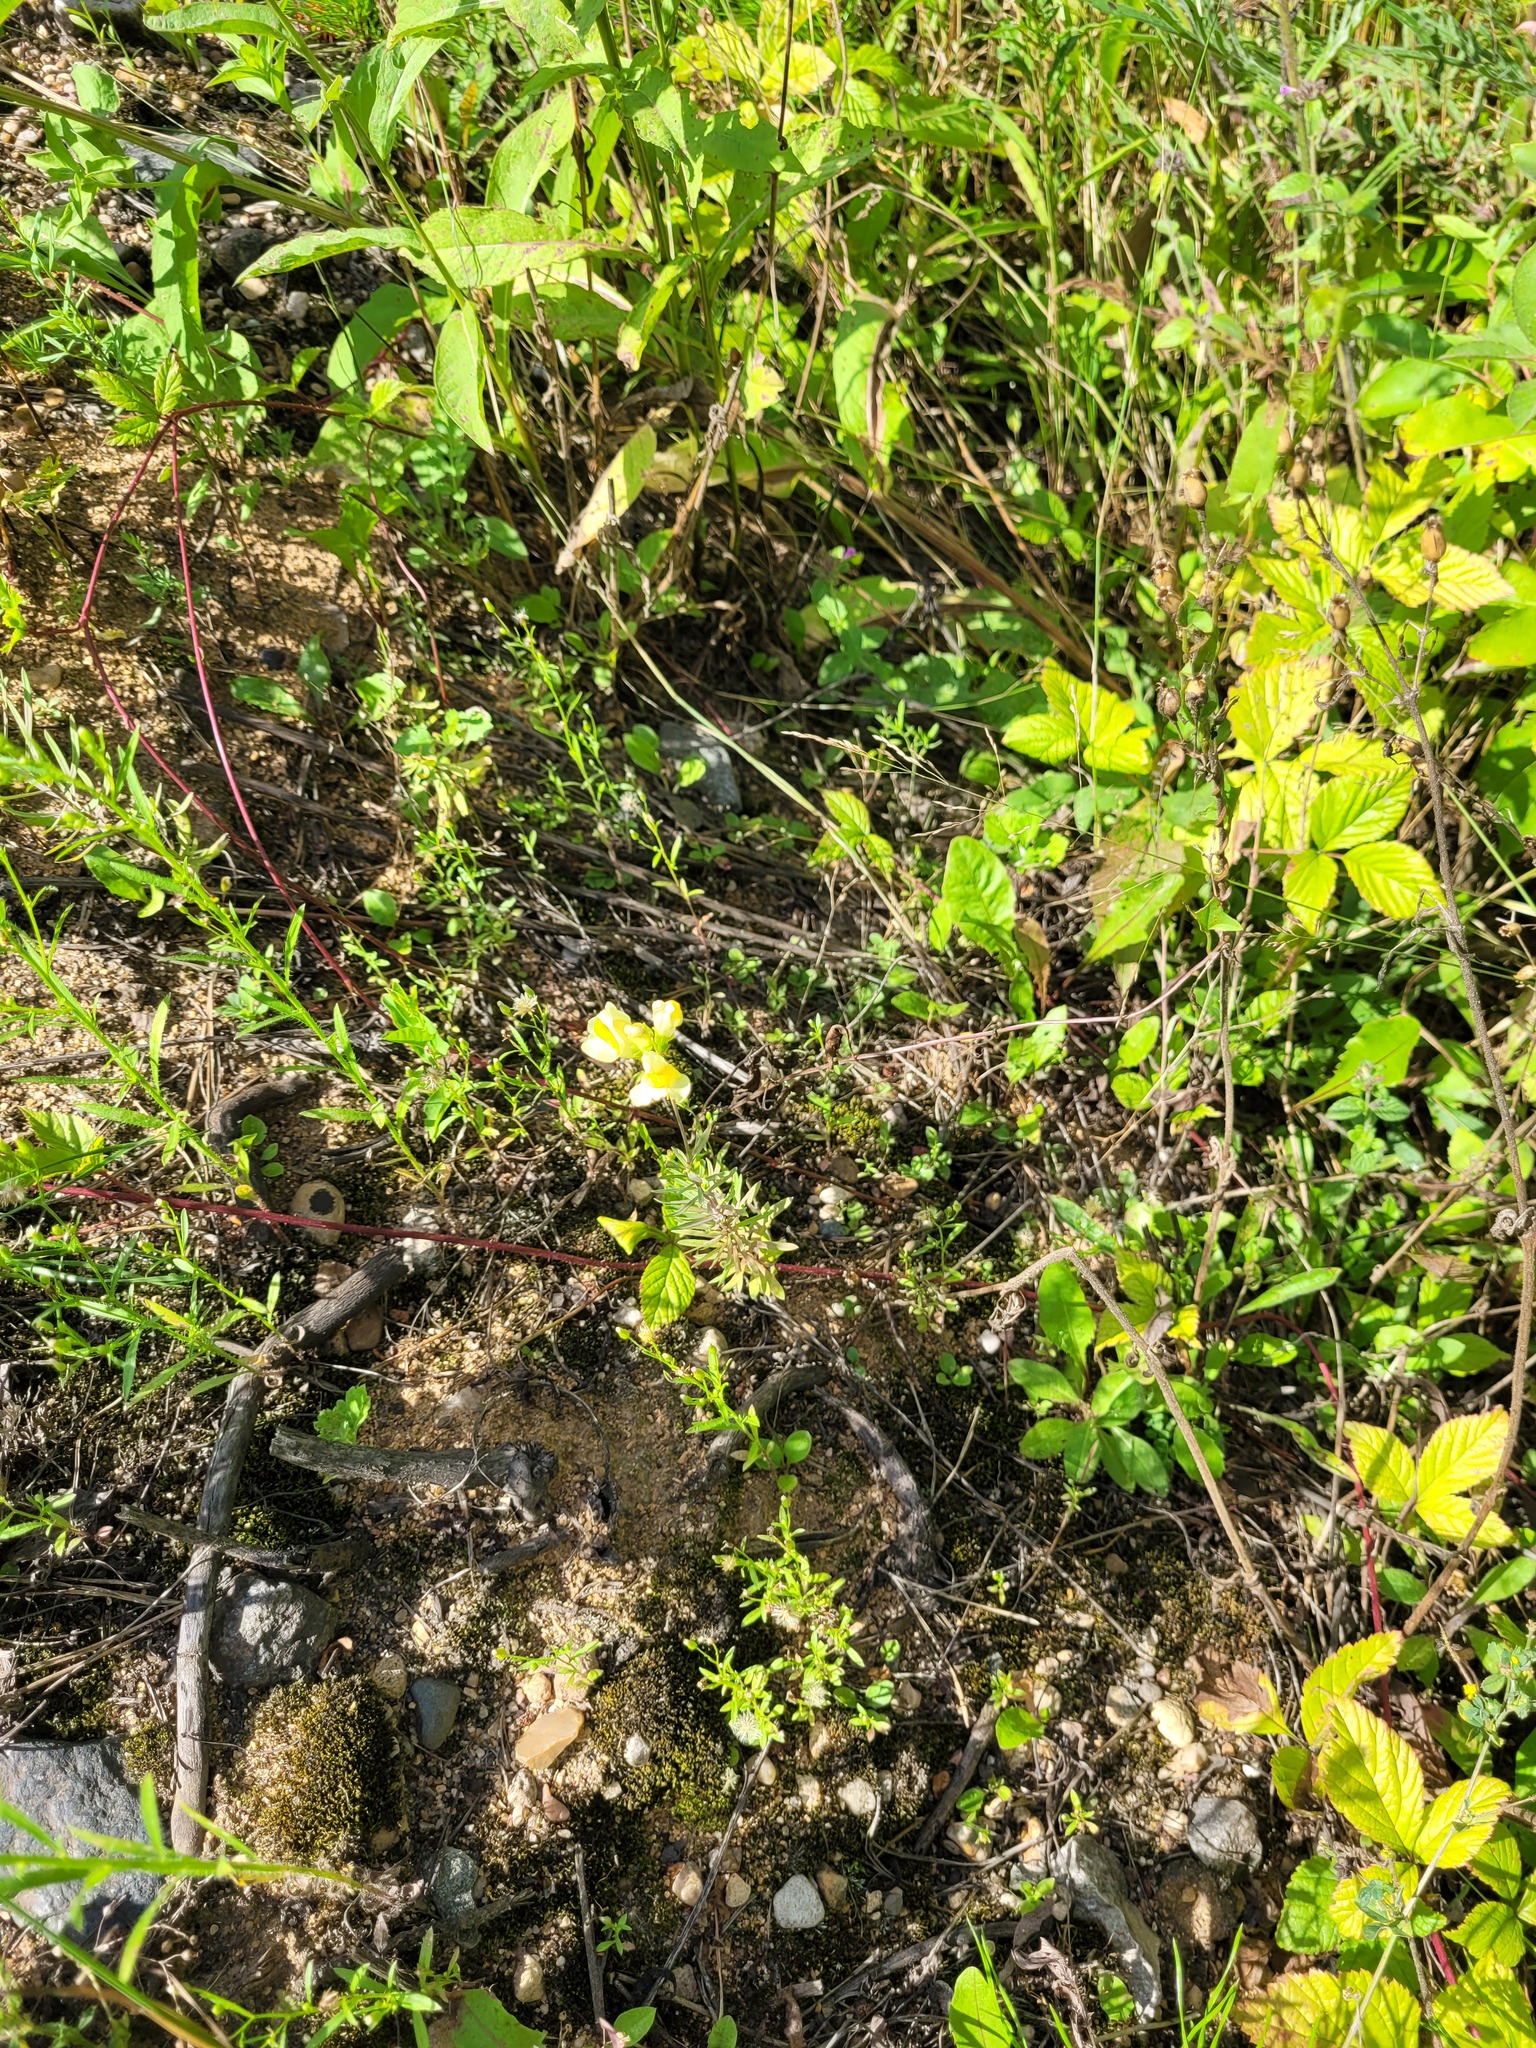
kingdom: Plantae
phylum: Tracheophyta
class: Magnoliopsida
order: Lamiales
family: Plantaginaceae
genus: Linaria
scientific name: Linaria vulgaris
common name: Butter and eggs
